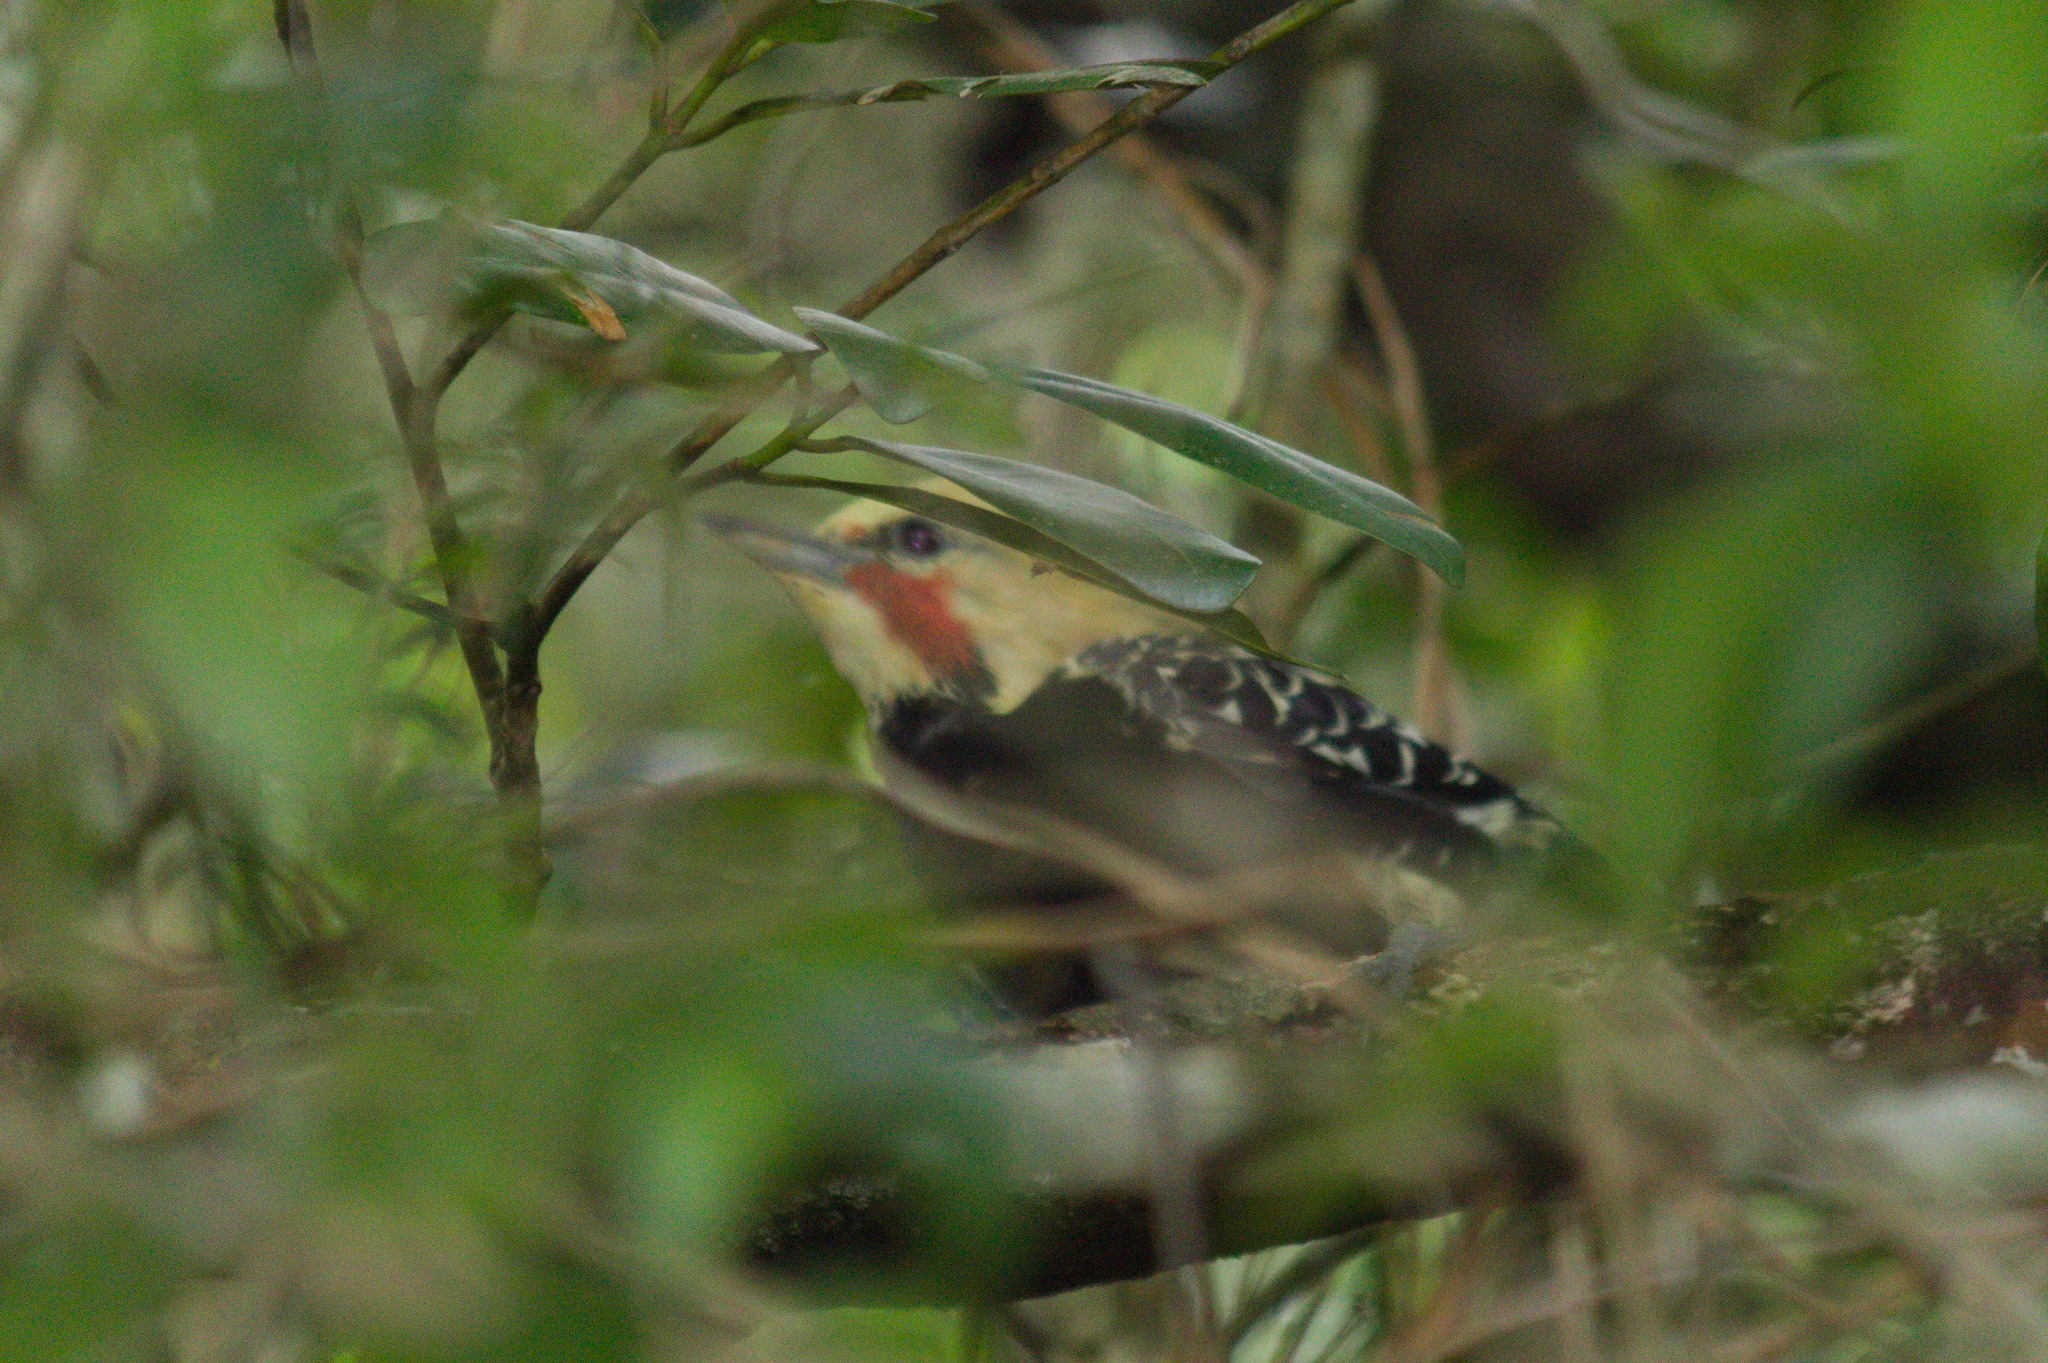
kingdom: Animalia
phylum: Chordata
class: Aves
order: Piciformes
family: Picidae
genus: Celeus
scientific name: Celeus flavescens
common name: Blond-crested woodpecker
